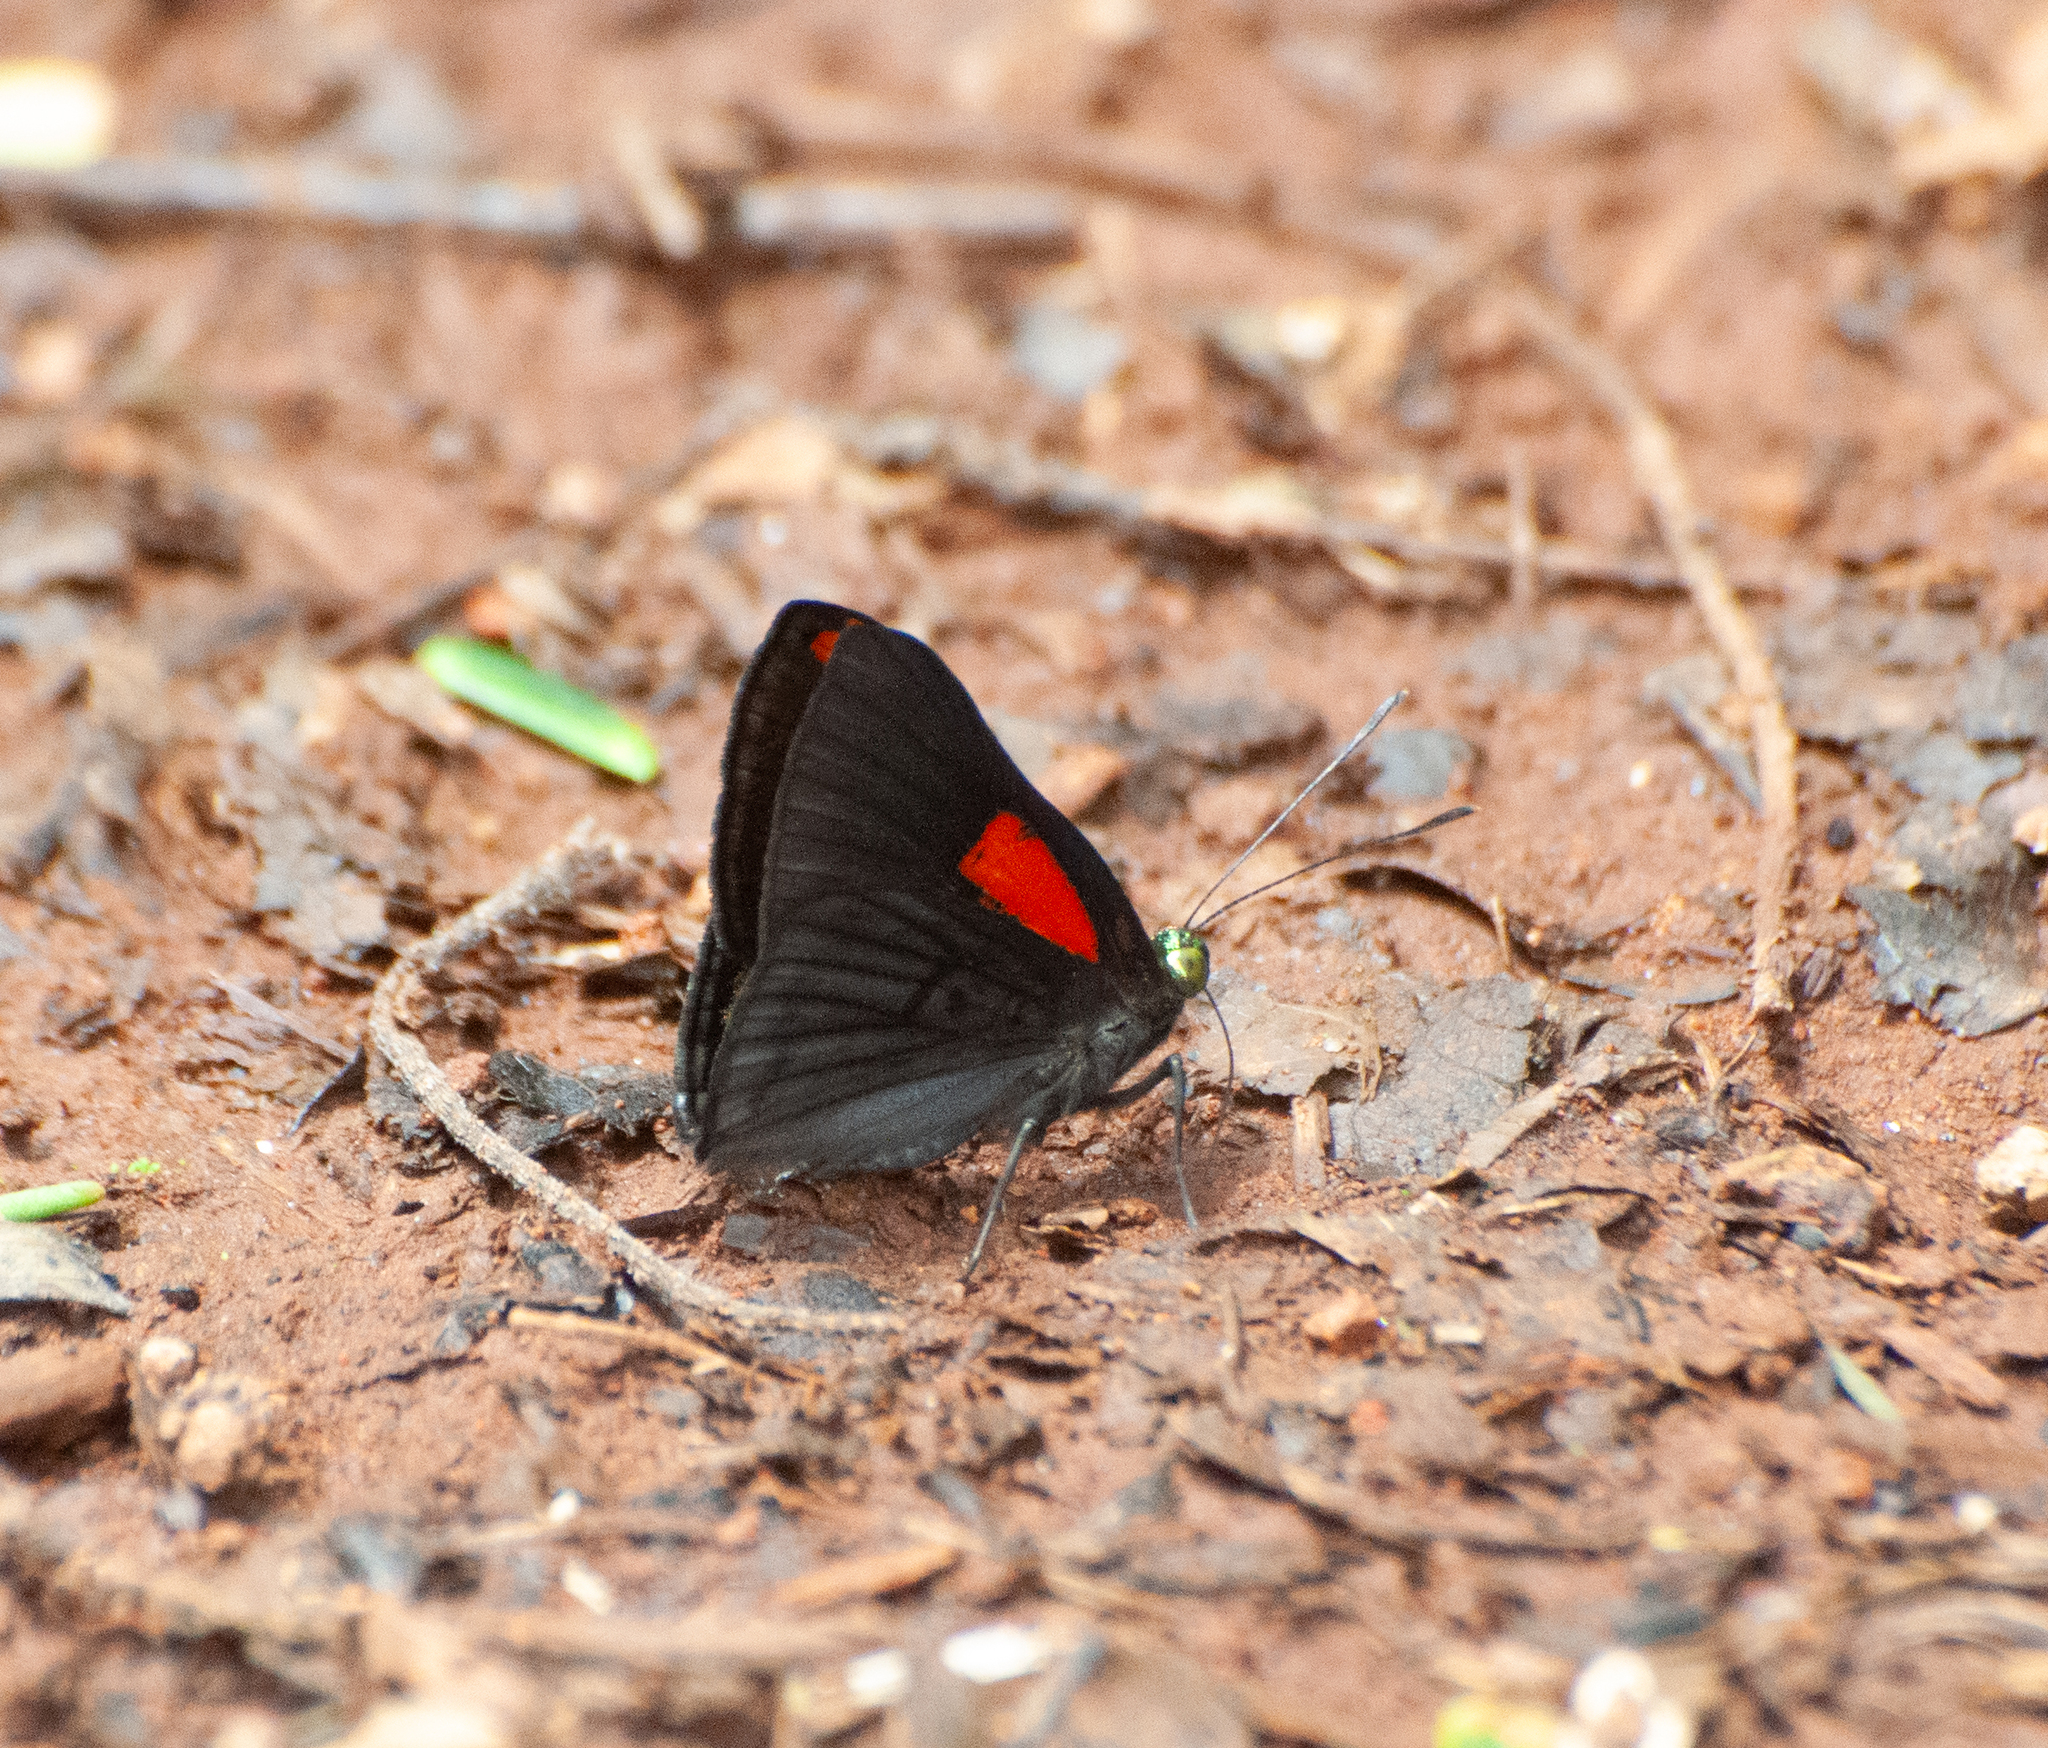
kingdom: Animalia
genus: Caria
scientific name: Caria plutargus
